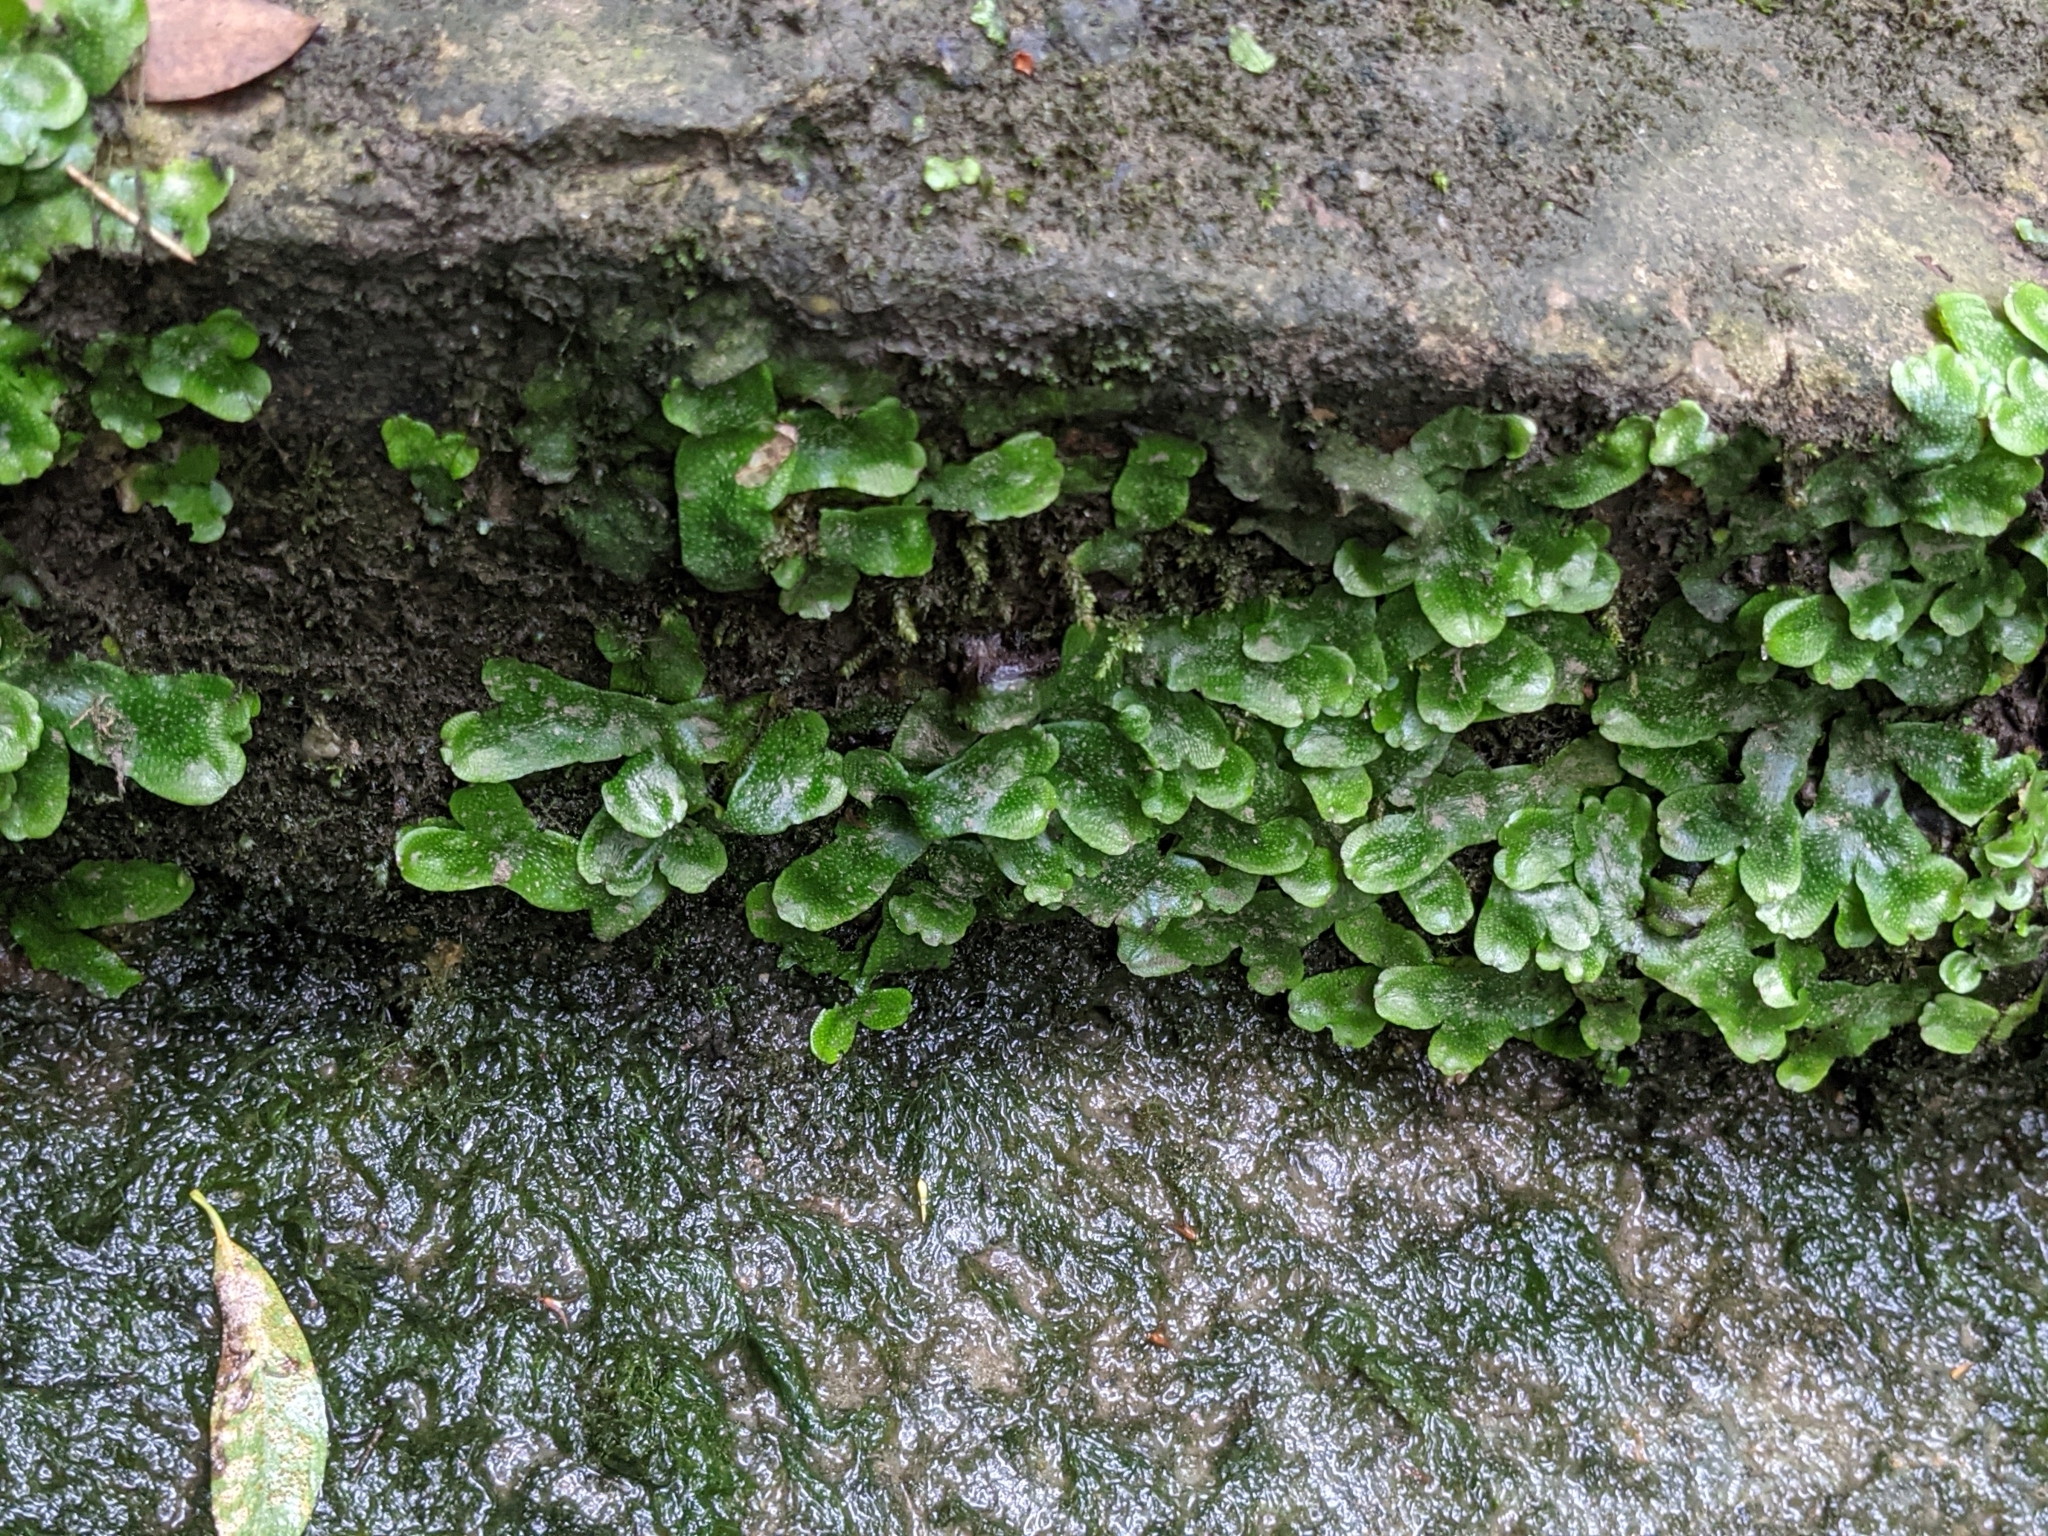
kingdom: Plantae
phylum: Marchantiophyta
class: Marchantiopsida
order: Marchantiales
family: Conocephalaceae
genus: Conocephalum
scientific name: Conocephalum conicum
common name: Great scented liverwort
